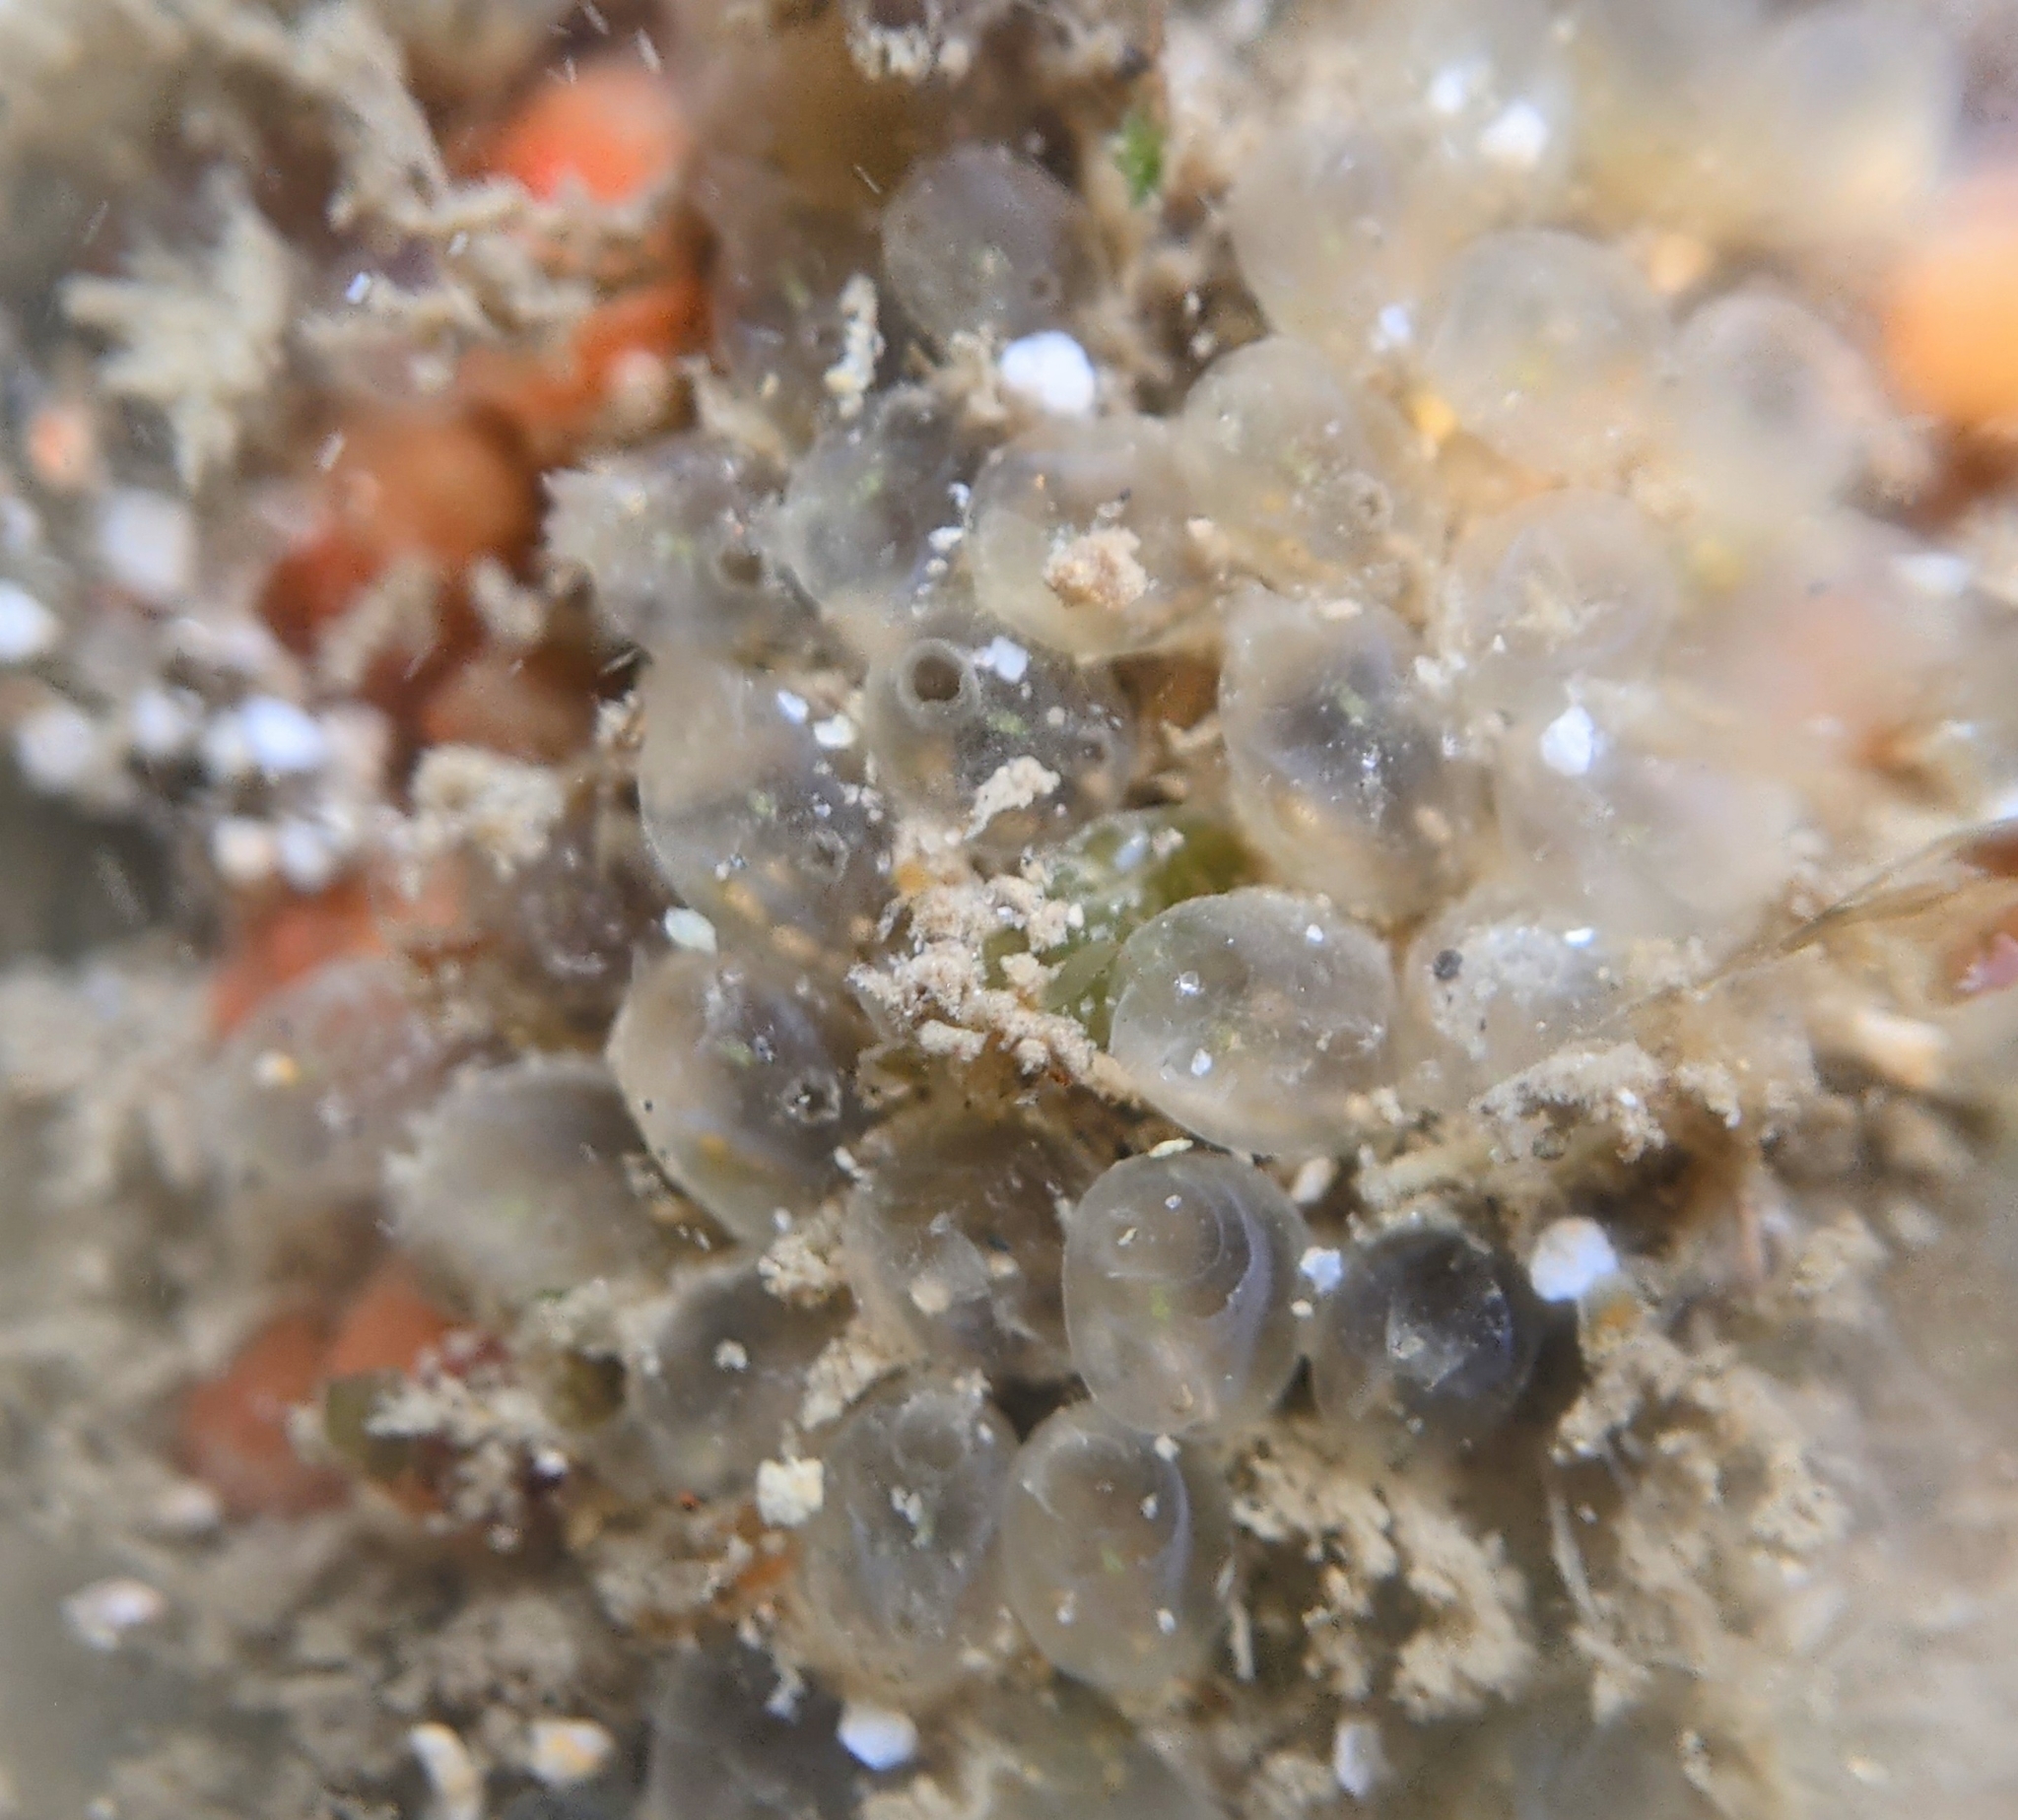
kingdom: Animalia
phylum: Chordata
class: Ascidiacea
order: Aplousobranchia
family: Euherdmaniidae
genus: Euherdmania
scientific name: Euherdmania claviformis
